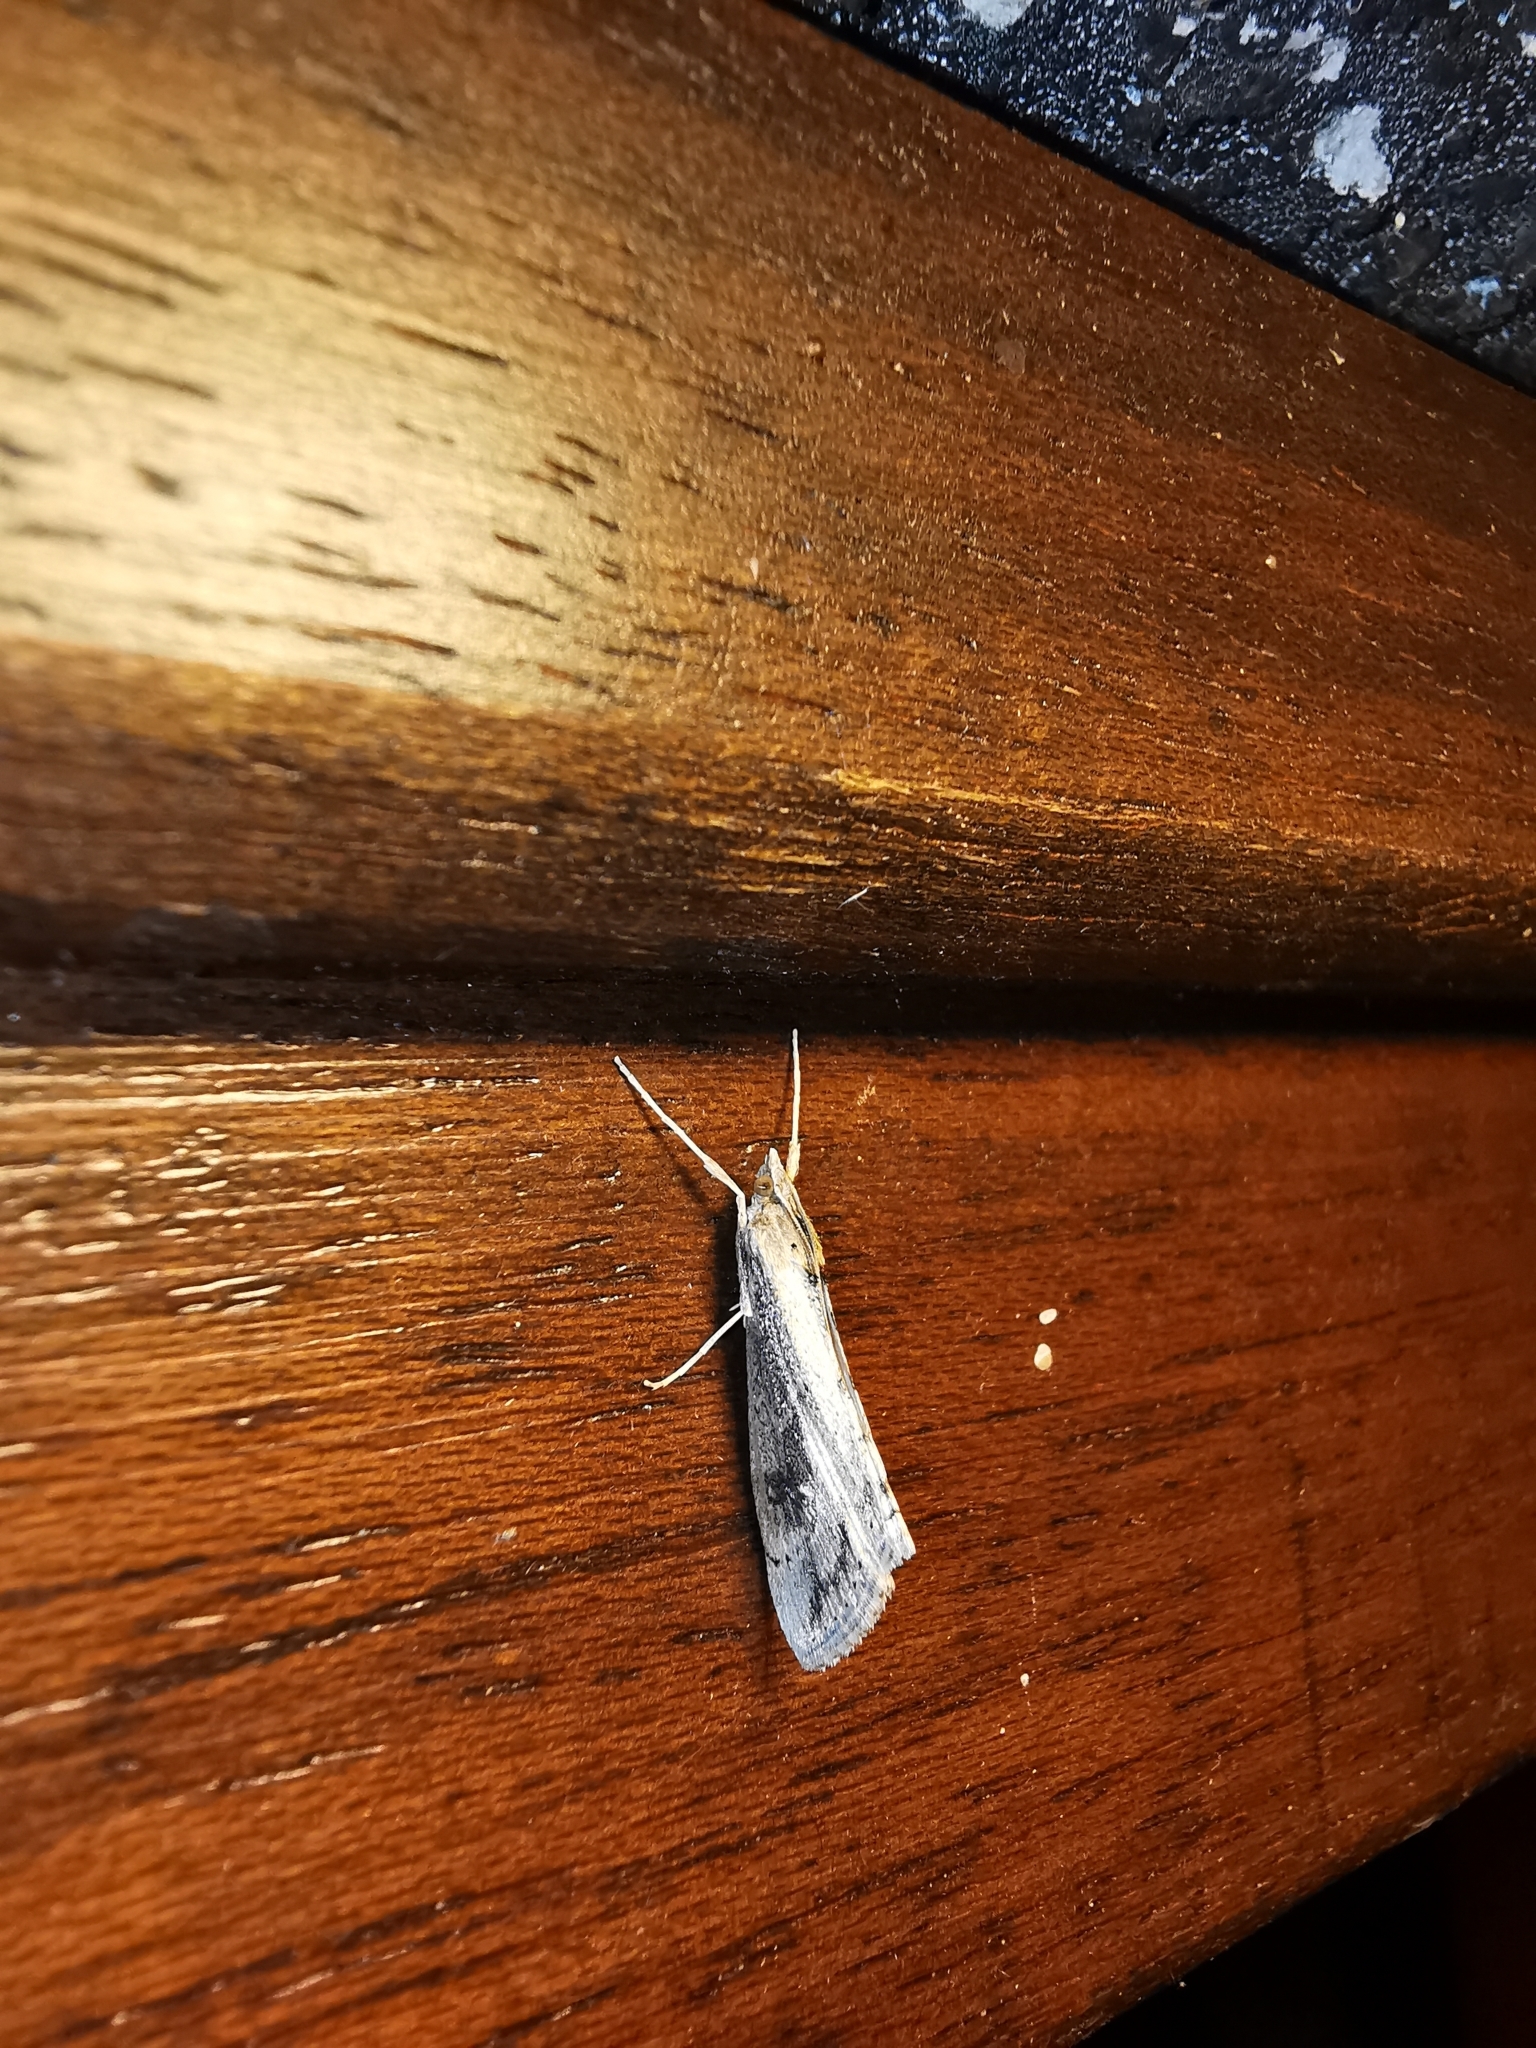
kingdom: Animalia
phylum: Arthropoda
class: Insecta
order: Lepidoptera
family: Crambidae
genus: Evergestis
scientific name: Evergestis isatidalis
